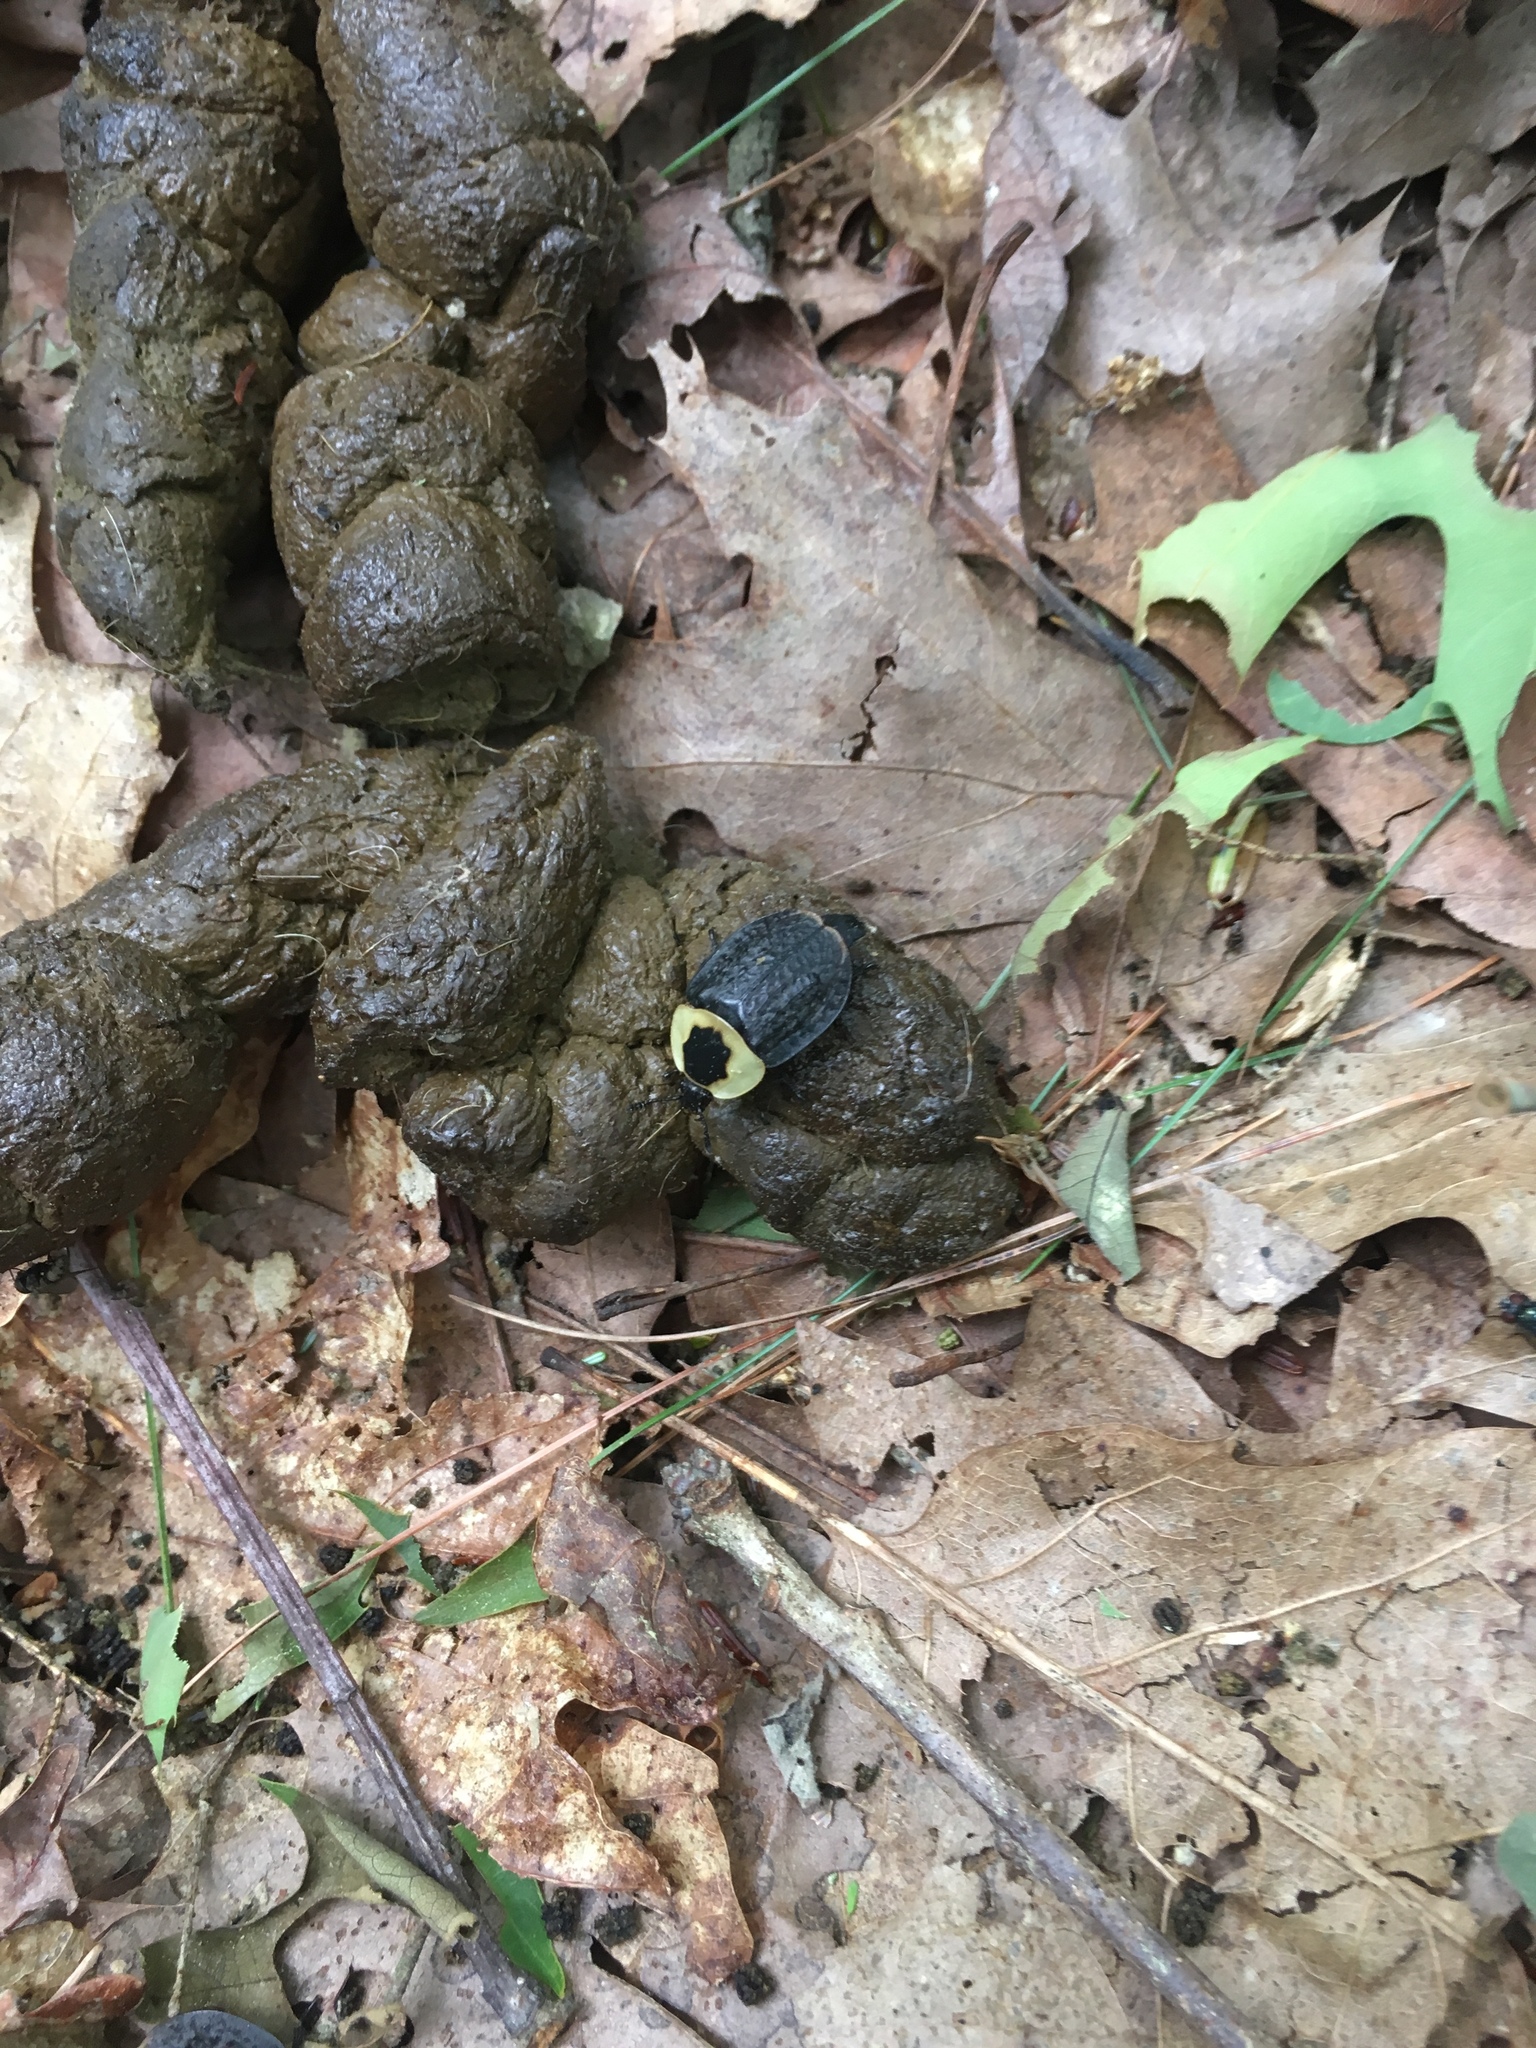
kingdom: Animalia
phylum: Arthropoda
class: Insecta
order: Coleoptera
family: Staphylinidae
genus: Necrophila
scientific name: Necrophila americana
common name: American carrion beetle
